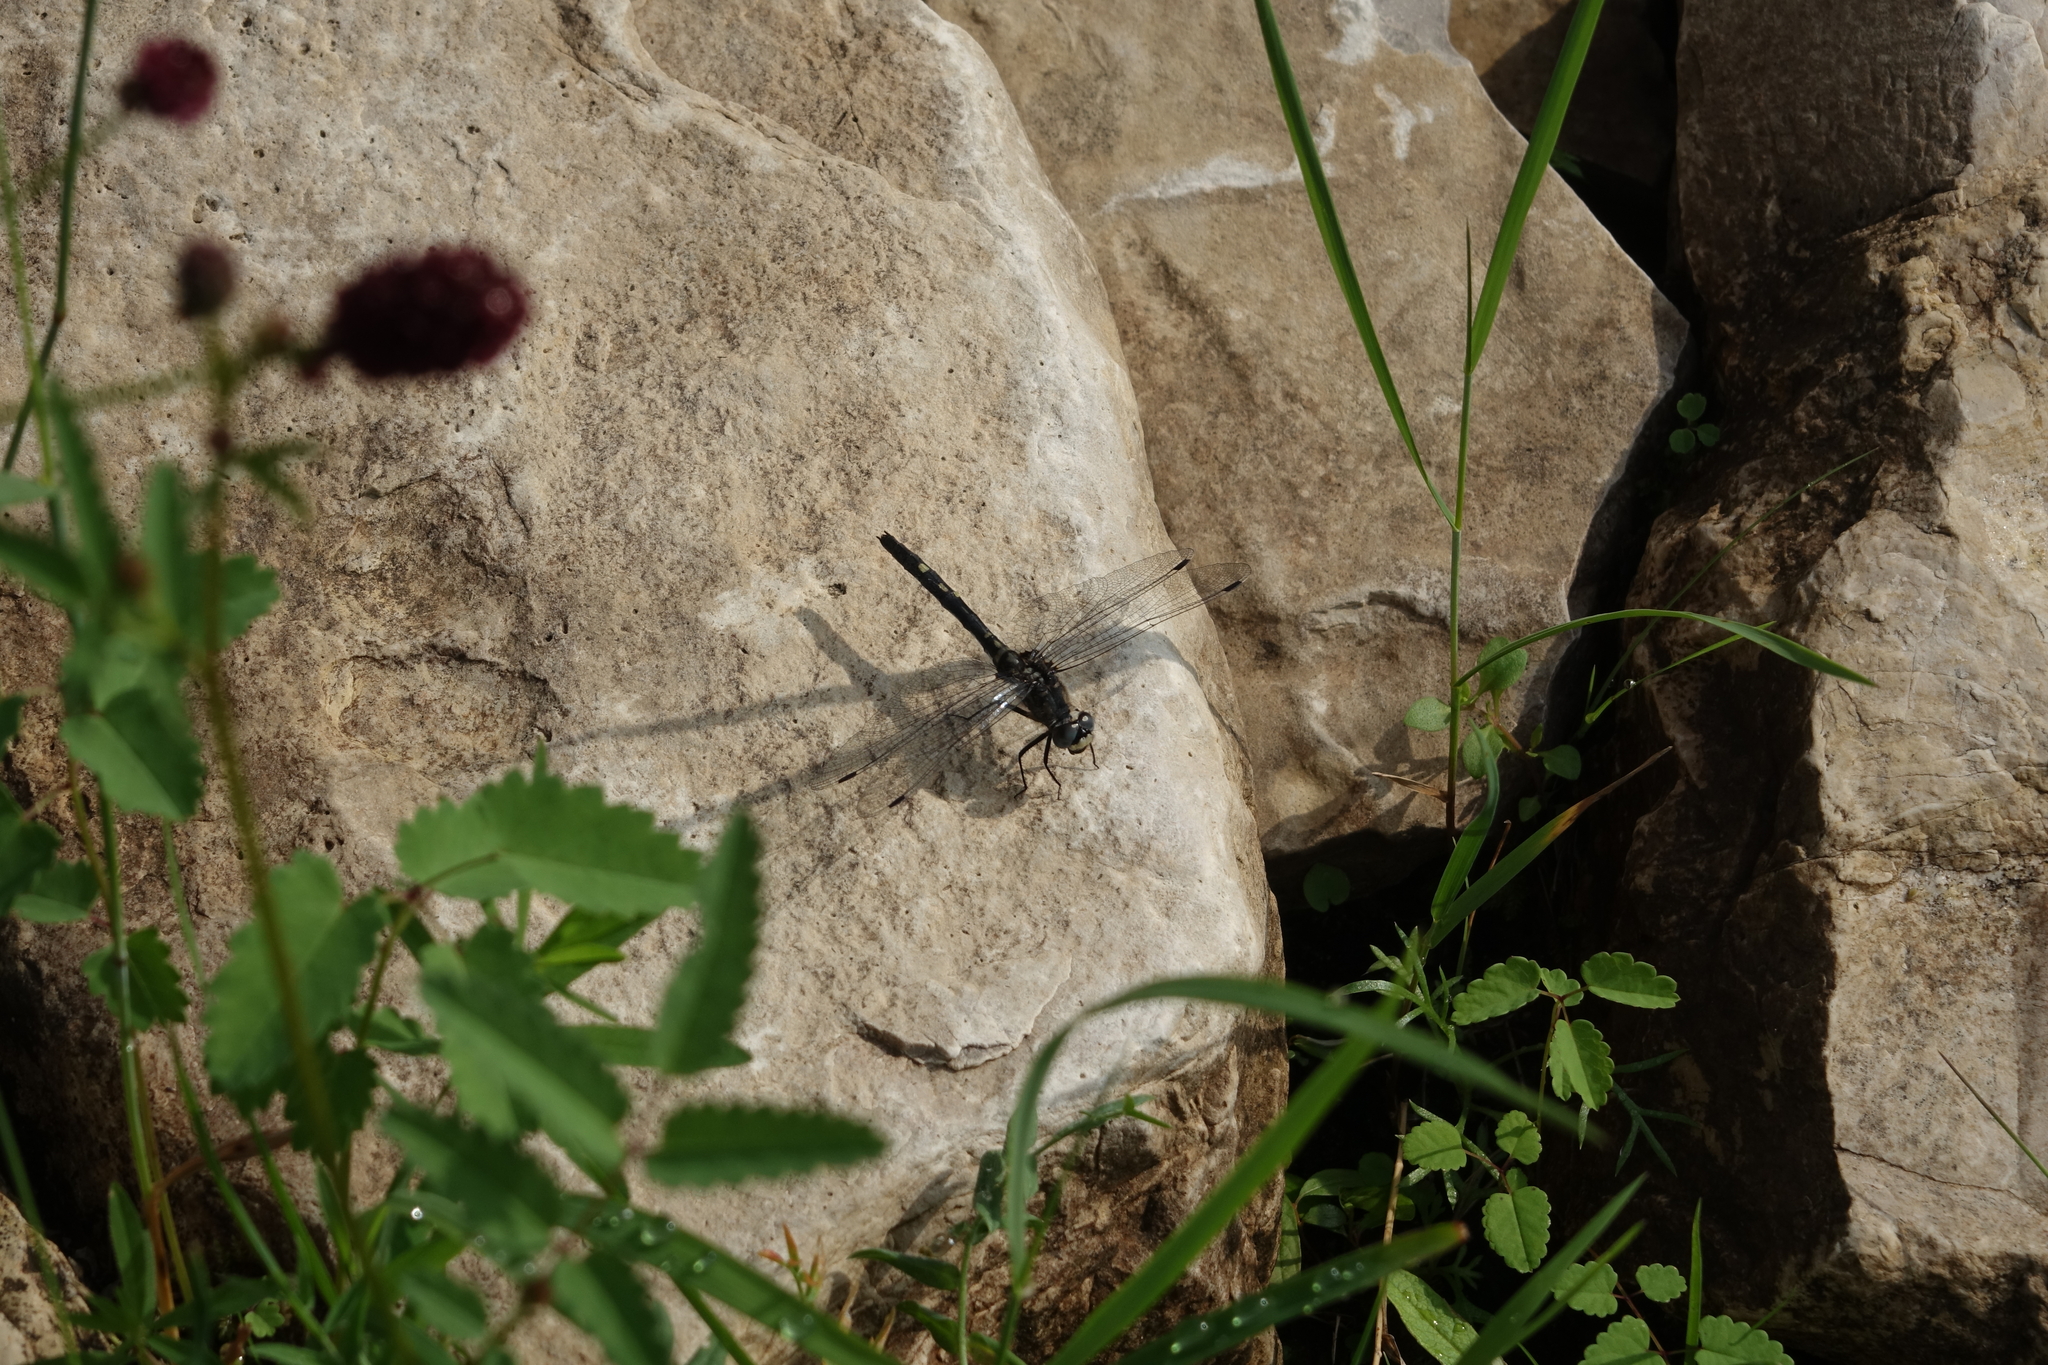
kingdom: Animalia
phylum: Arthropoda
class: Insecta
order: Odonata
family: Libellulidae
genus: Leucorrhinia
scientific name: Leucorrhinia orientalis
